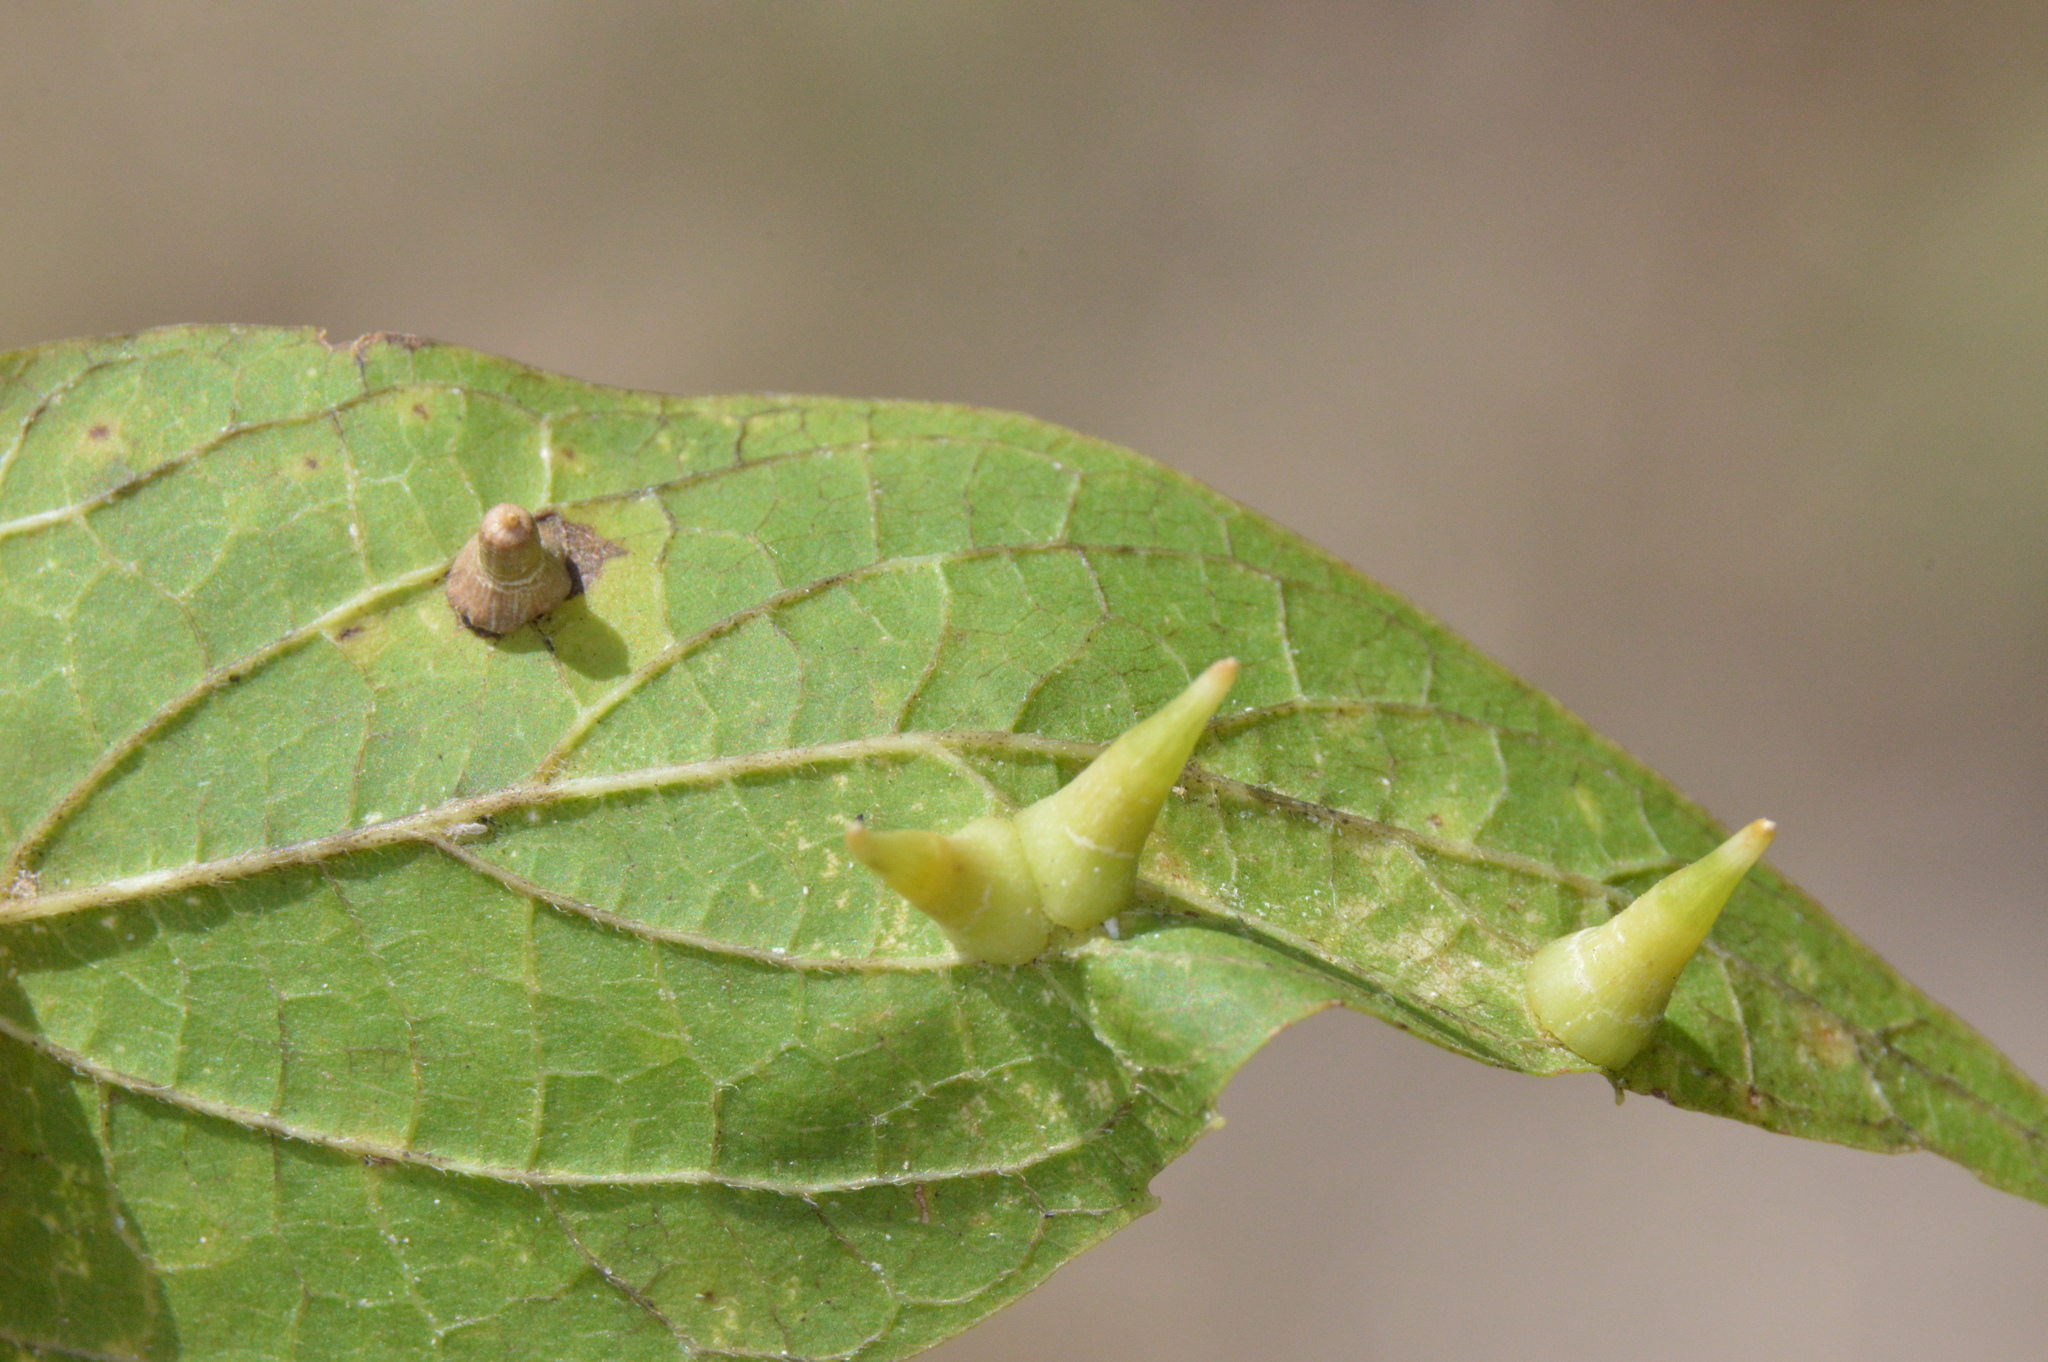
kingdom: Animalia
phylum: Arthropoda
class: Insecta
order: Diptera
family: Cecidomyiidae
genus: Celticecis
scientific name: Celticecis subulata
